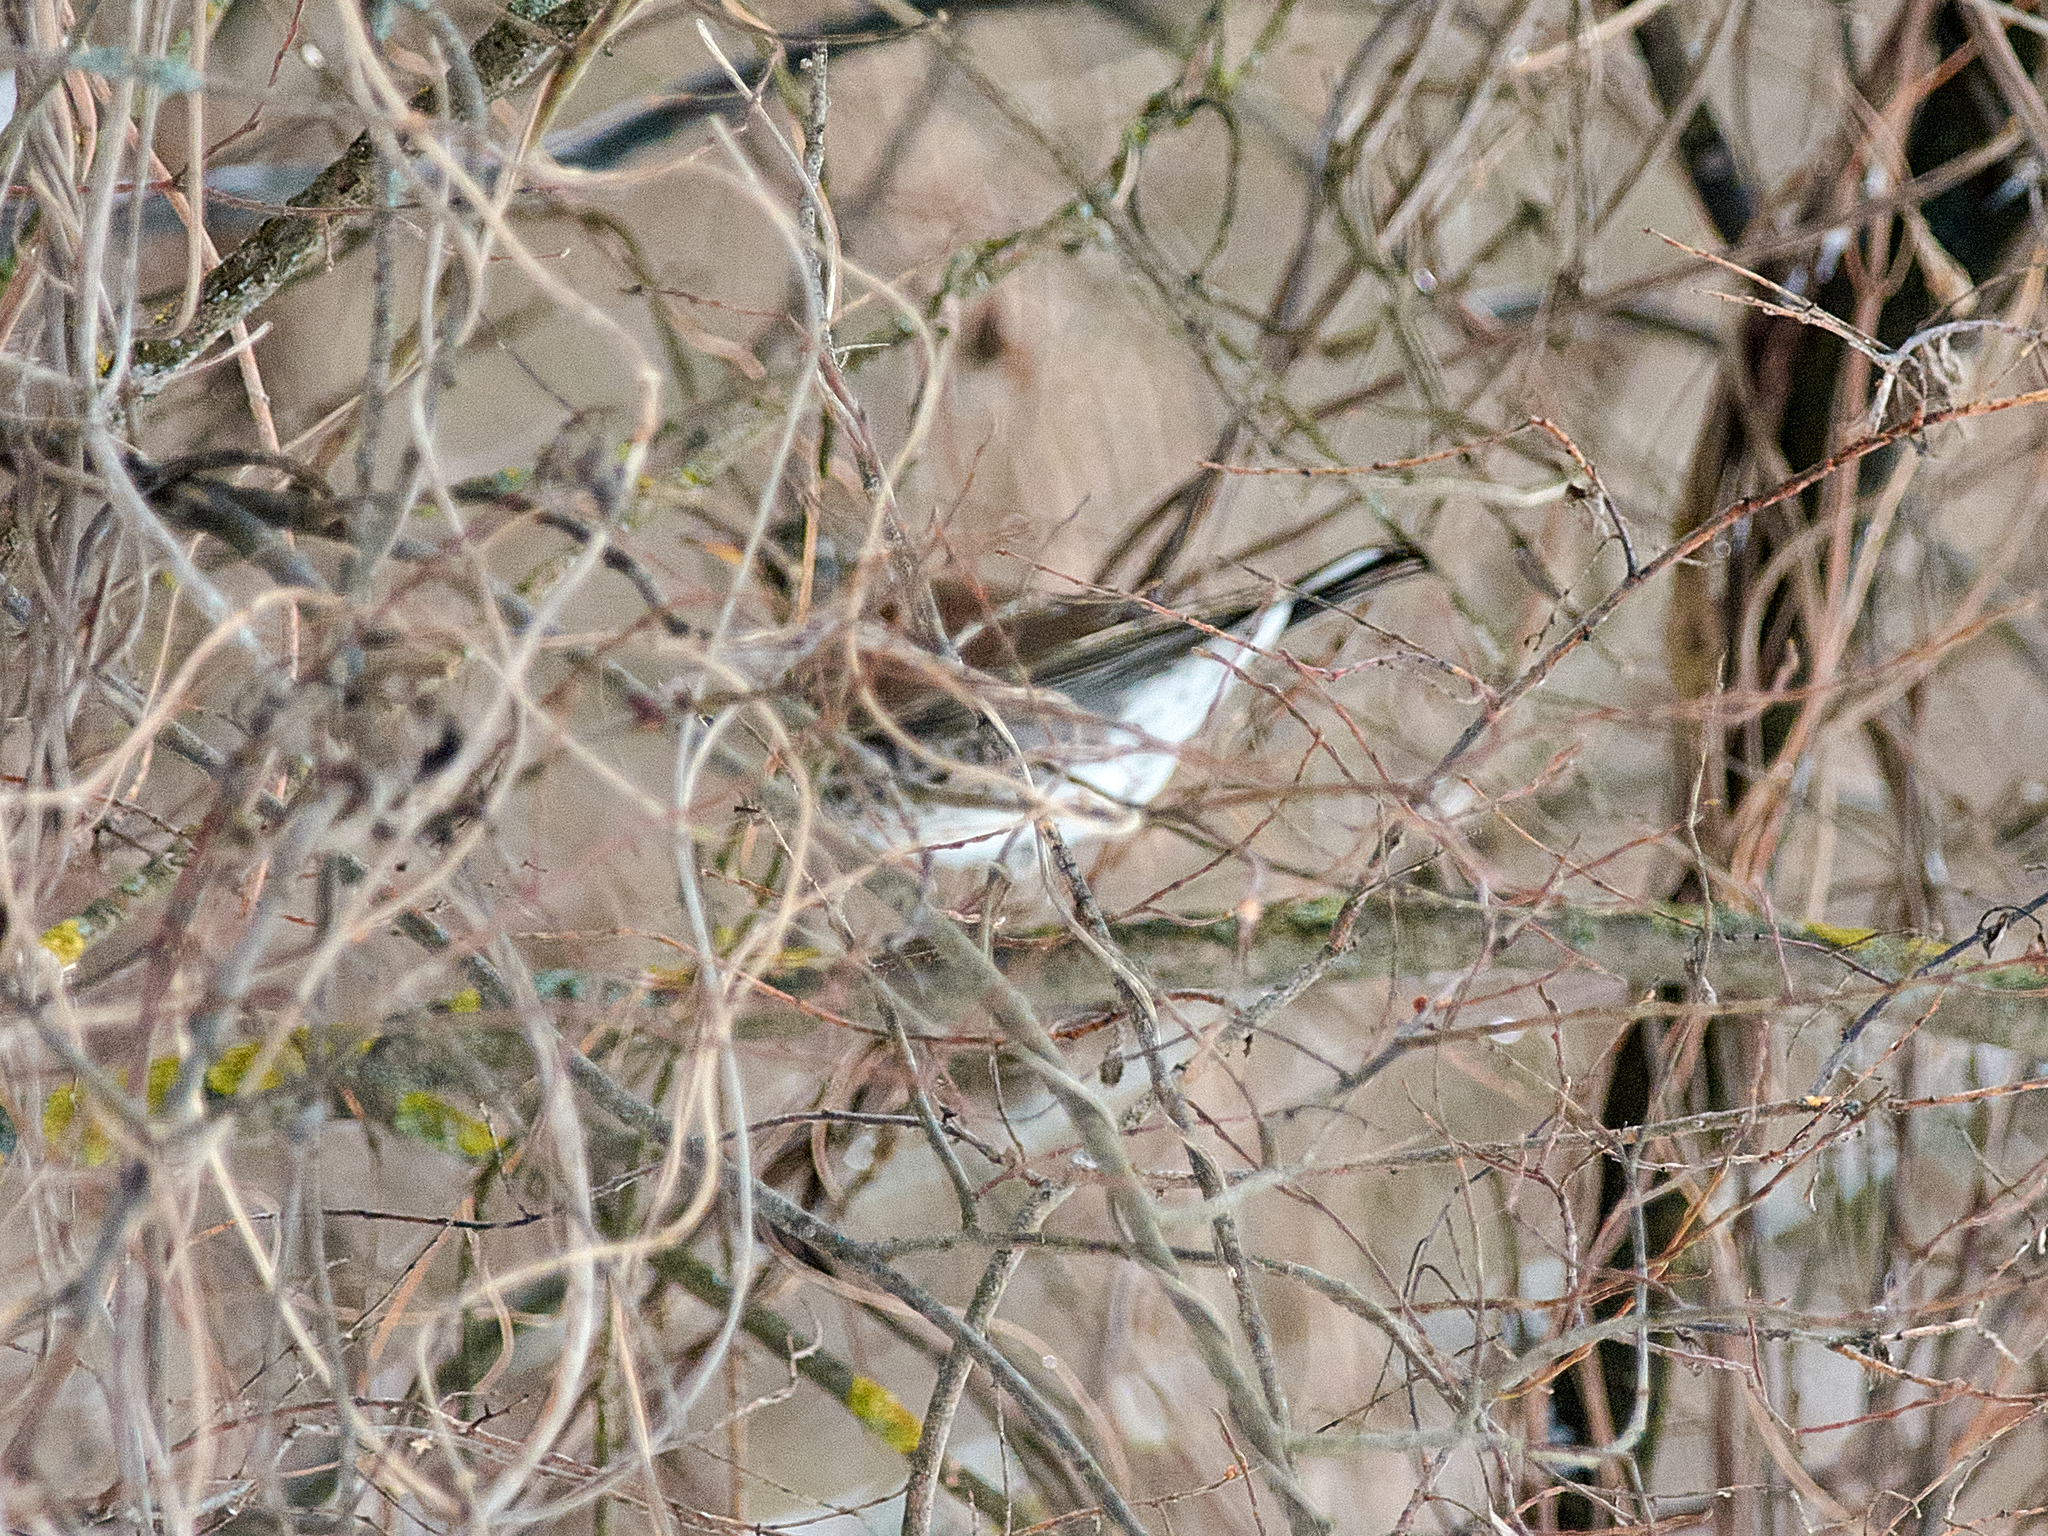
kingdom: Animalia
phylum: Chordata
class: Aves
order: Passeriformes
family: Turdidae
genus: Turdus
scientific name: Turdus pilaris
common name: Fieldfare
